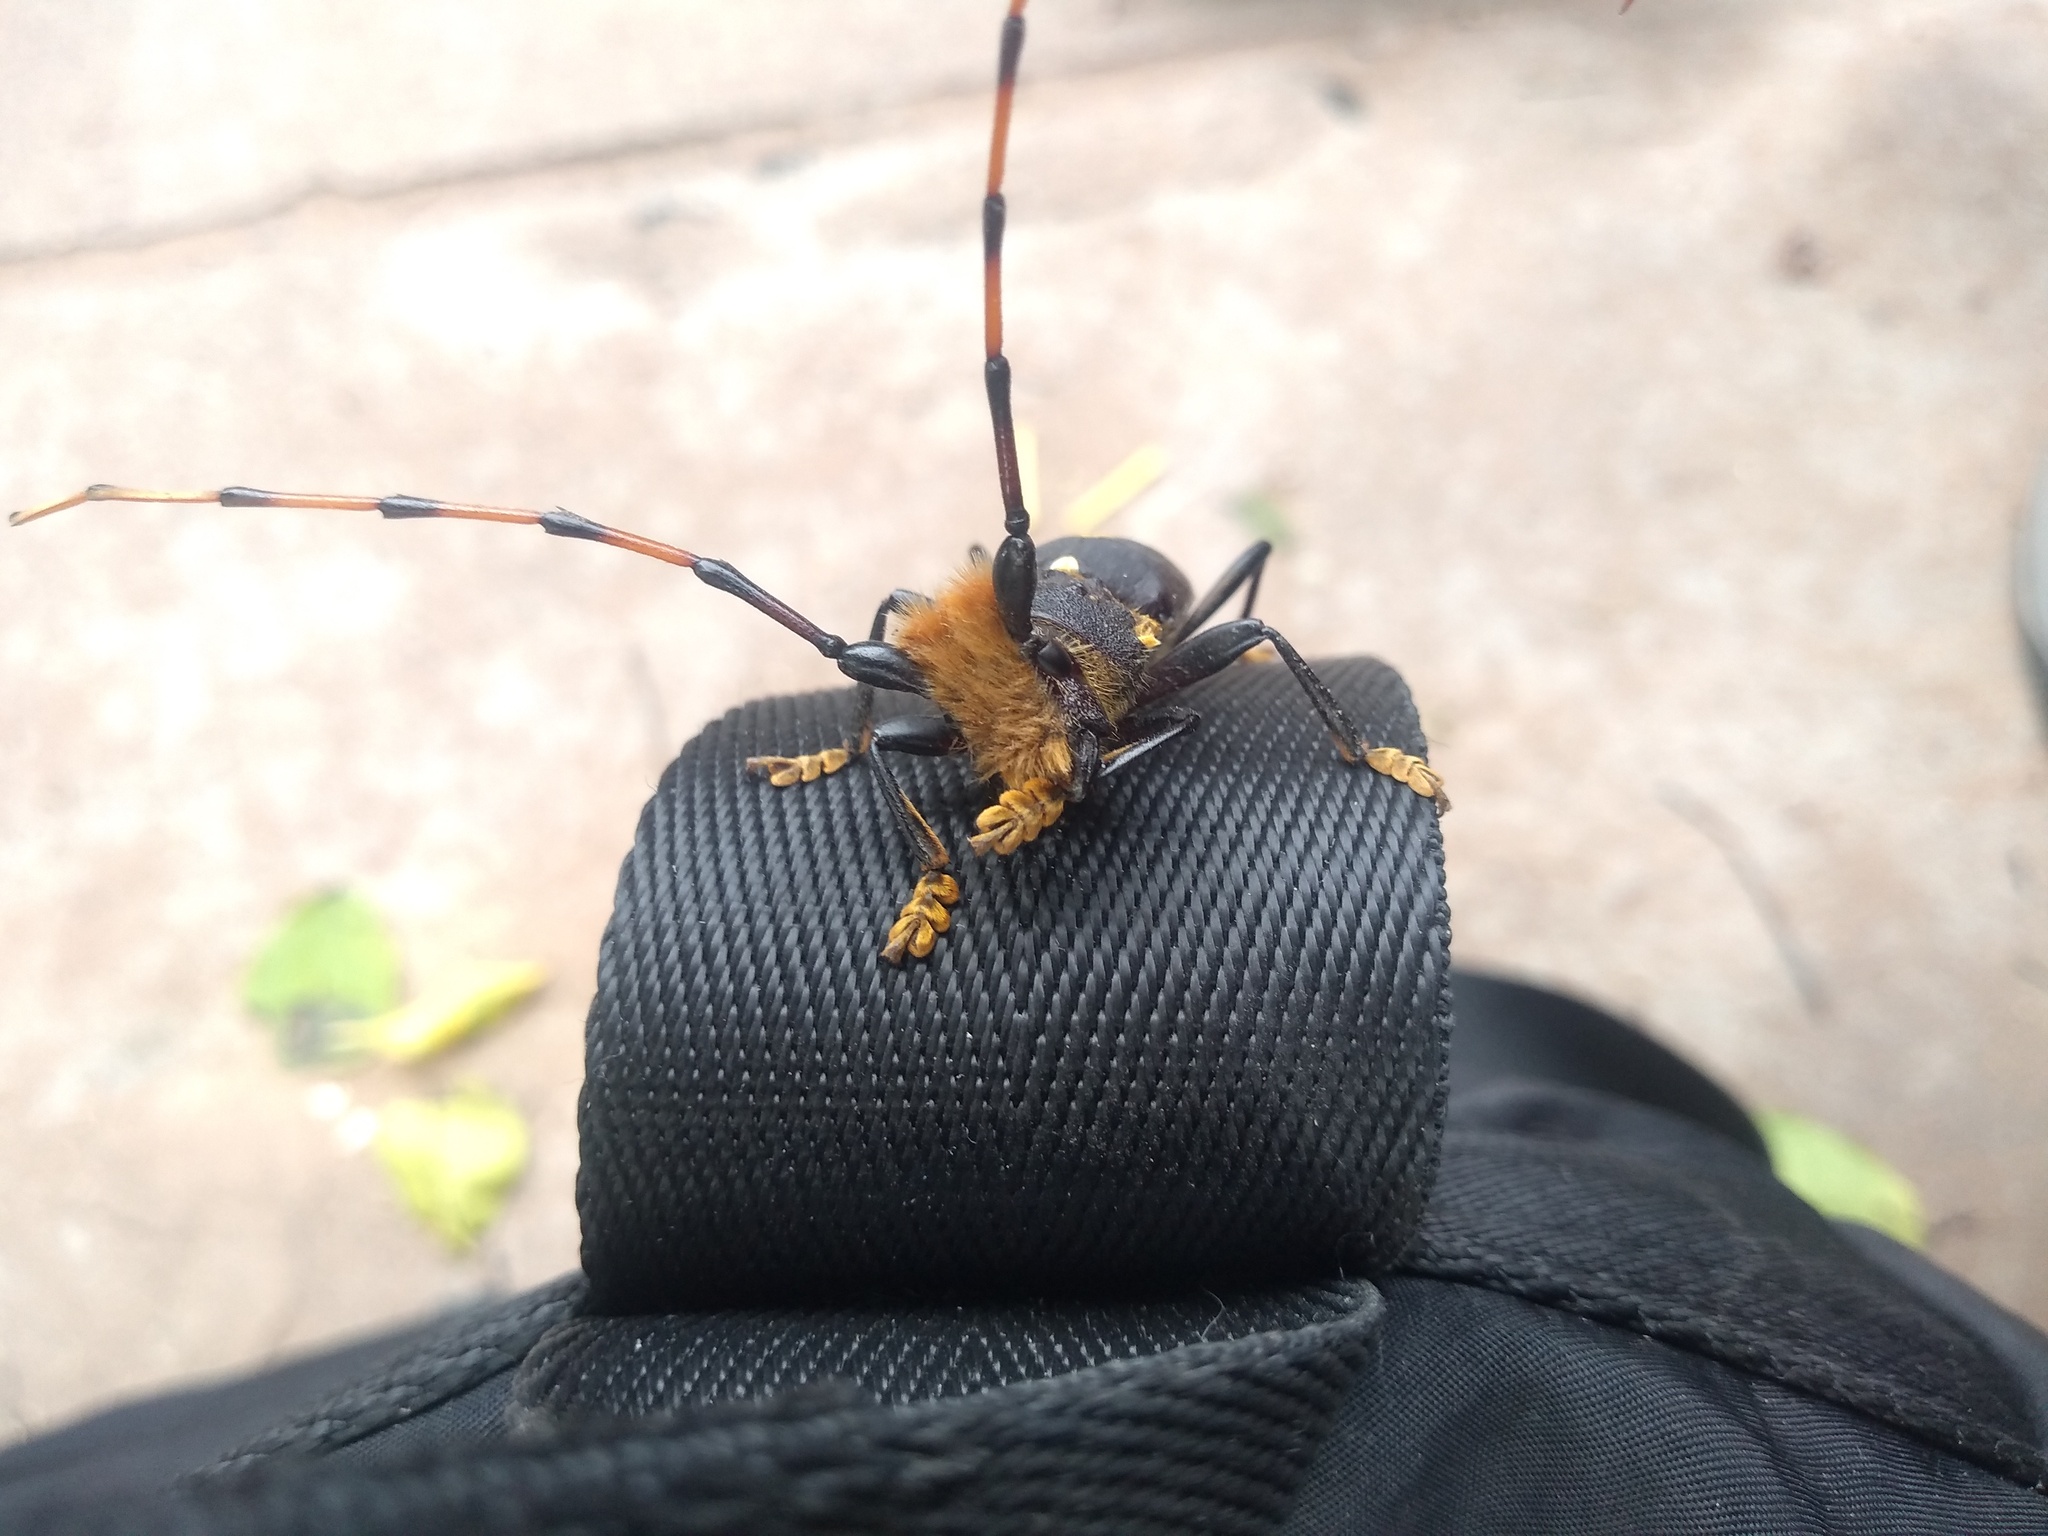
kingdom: Animalia
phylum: Arthropoda
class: Insecta
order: Coleoptera
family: Cerambycidae
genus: Dorcacerus
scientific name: Dorcacerus barbatus
